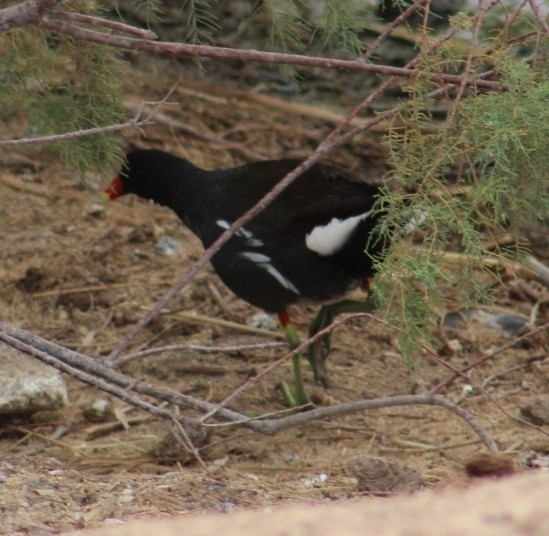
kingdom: Animalia
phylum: Chordata
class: Aves
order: Gruiformes
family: Rallidae
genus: Gallinula
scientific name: Gallinula chloropus
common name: Common moorhen
